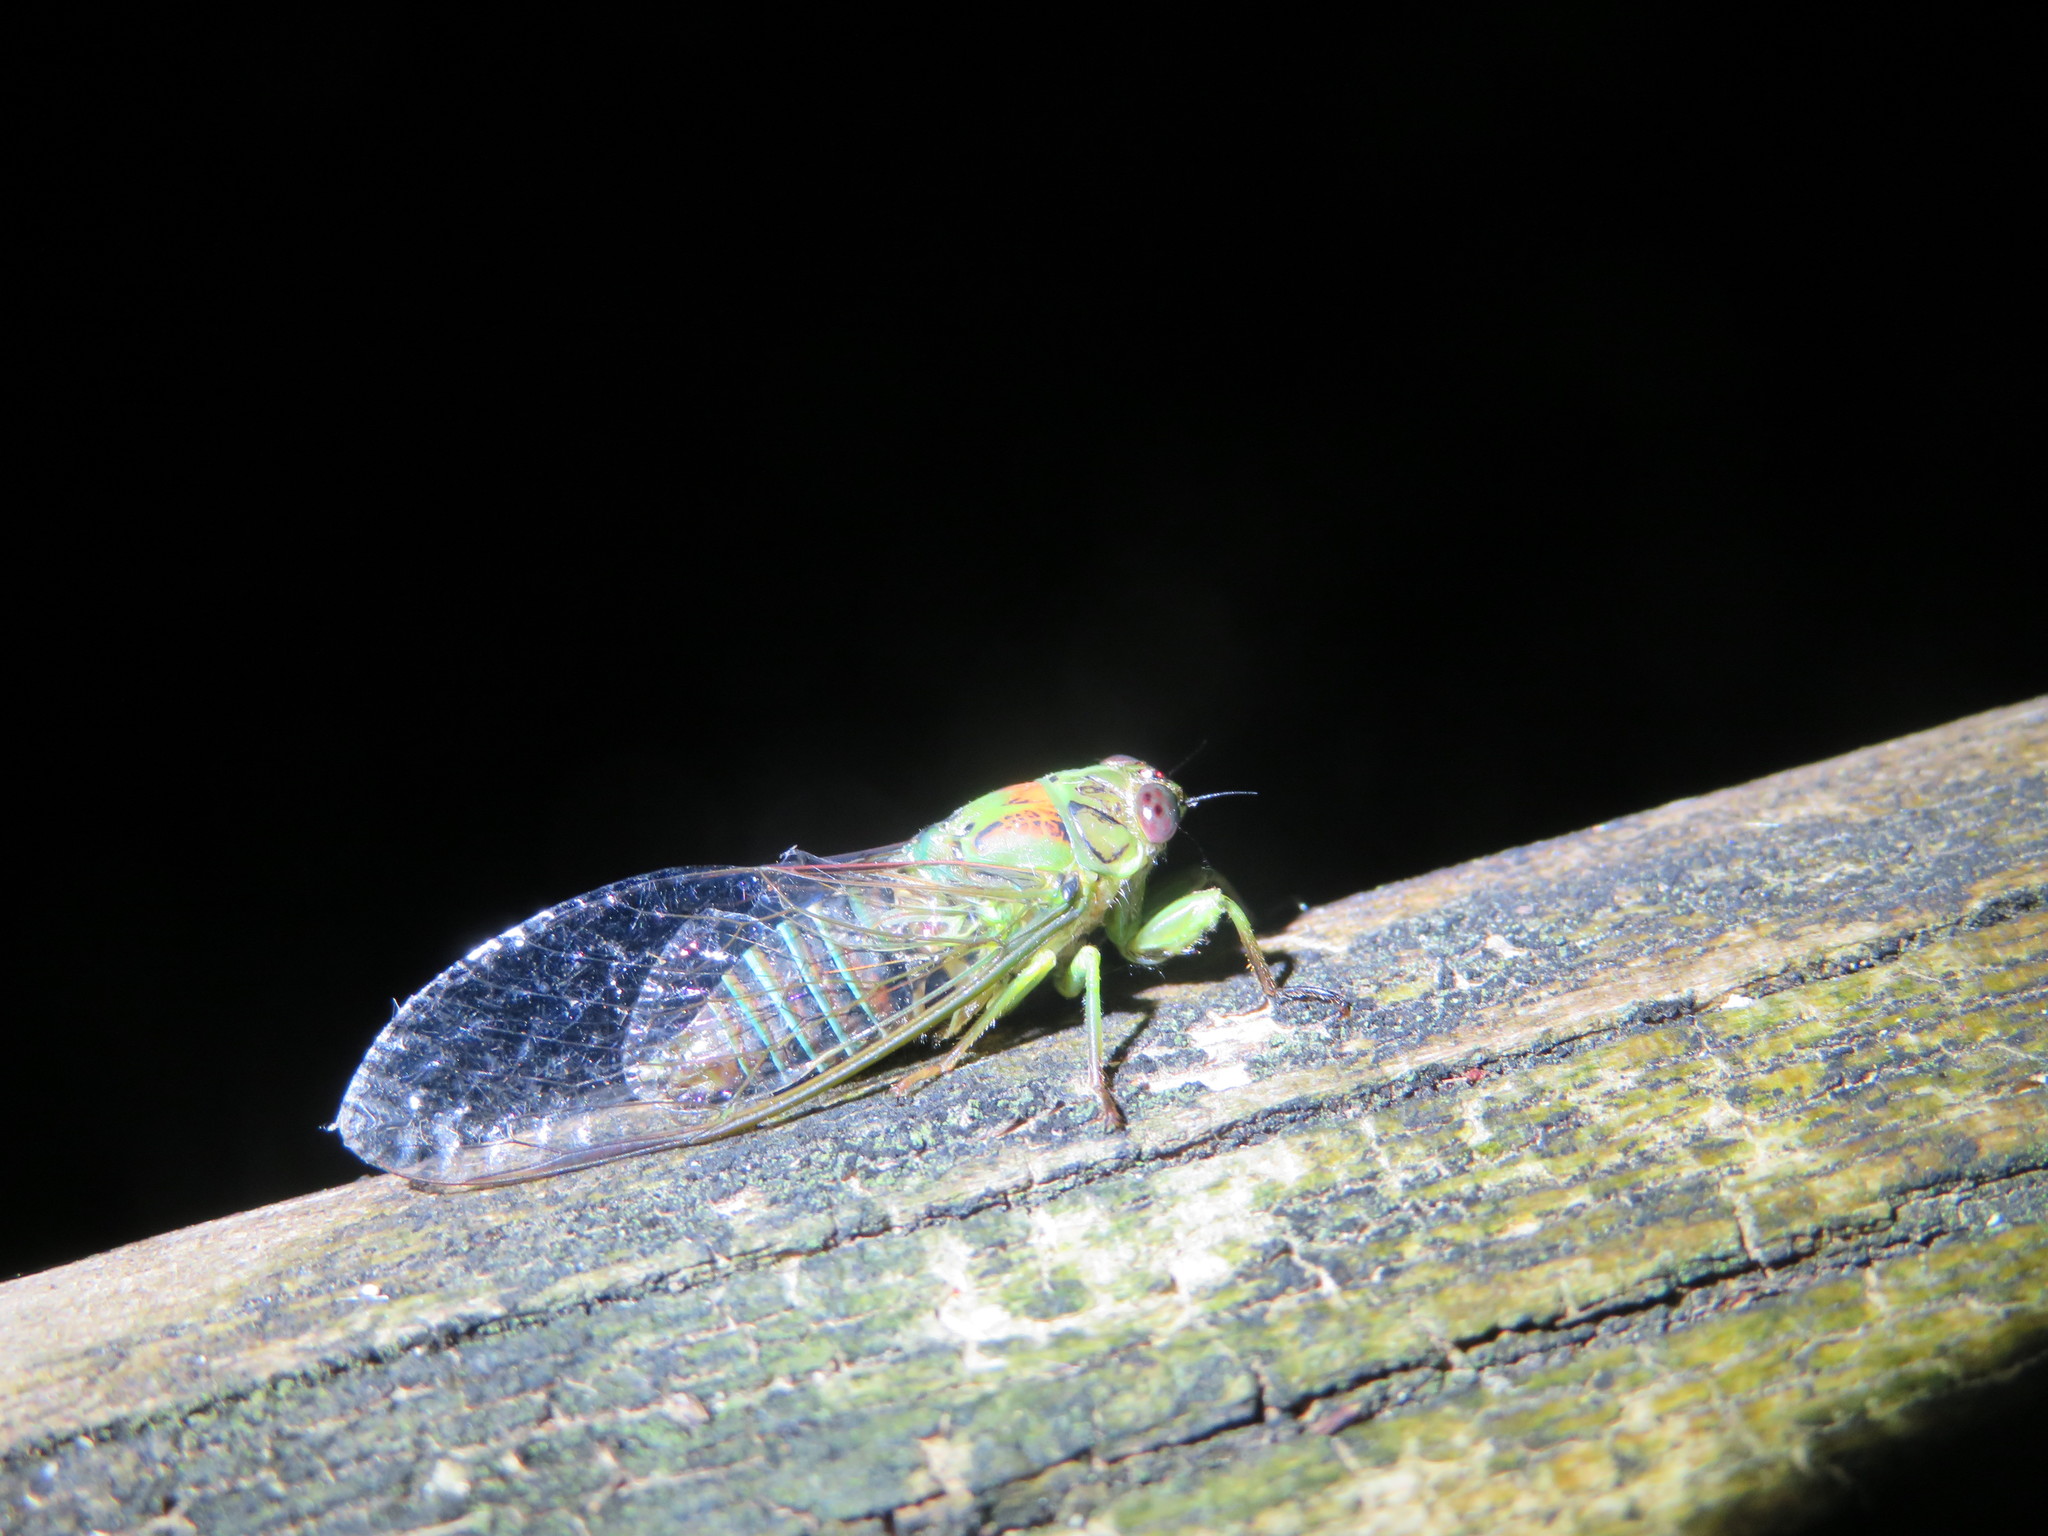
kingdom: Animalia
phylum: Arthropoda
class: Insecta
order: Hemiptera
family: Cicadidae
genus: Kikihia
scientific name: Kikihia scutellaris
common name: Lesser bronze cicada
